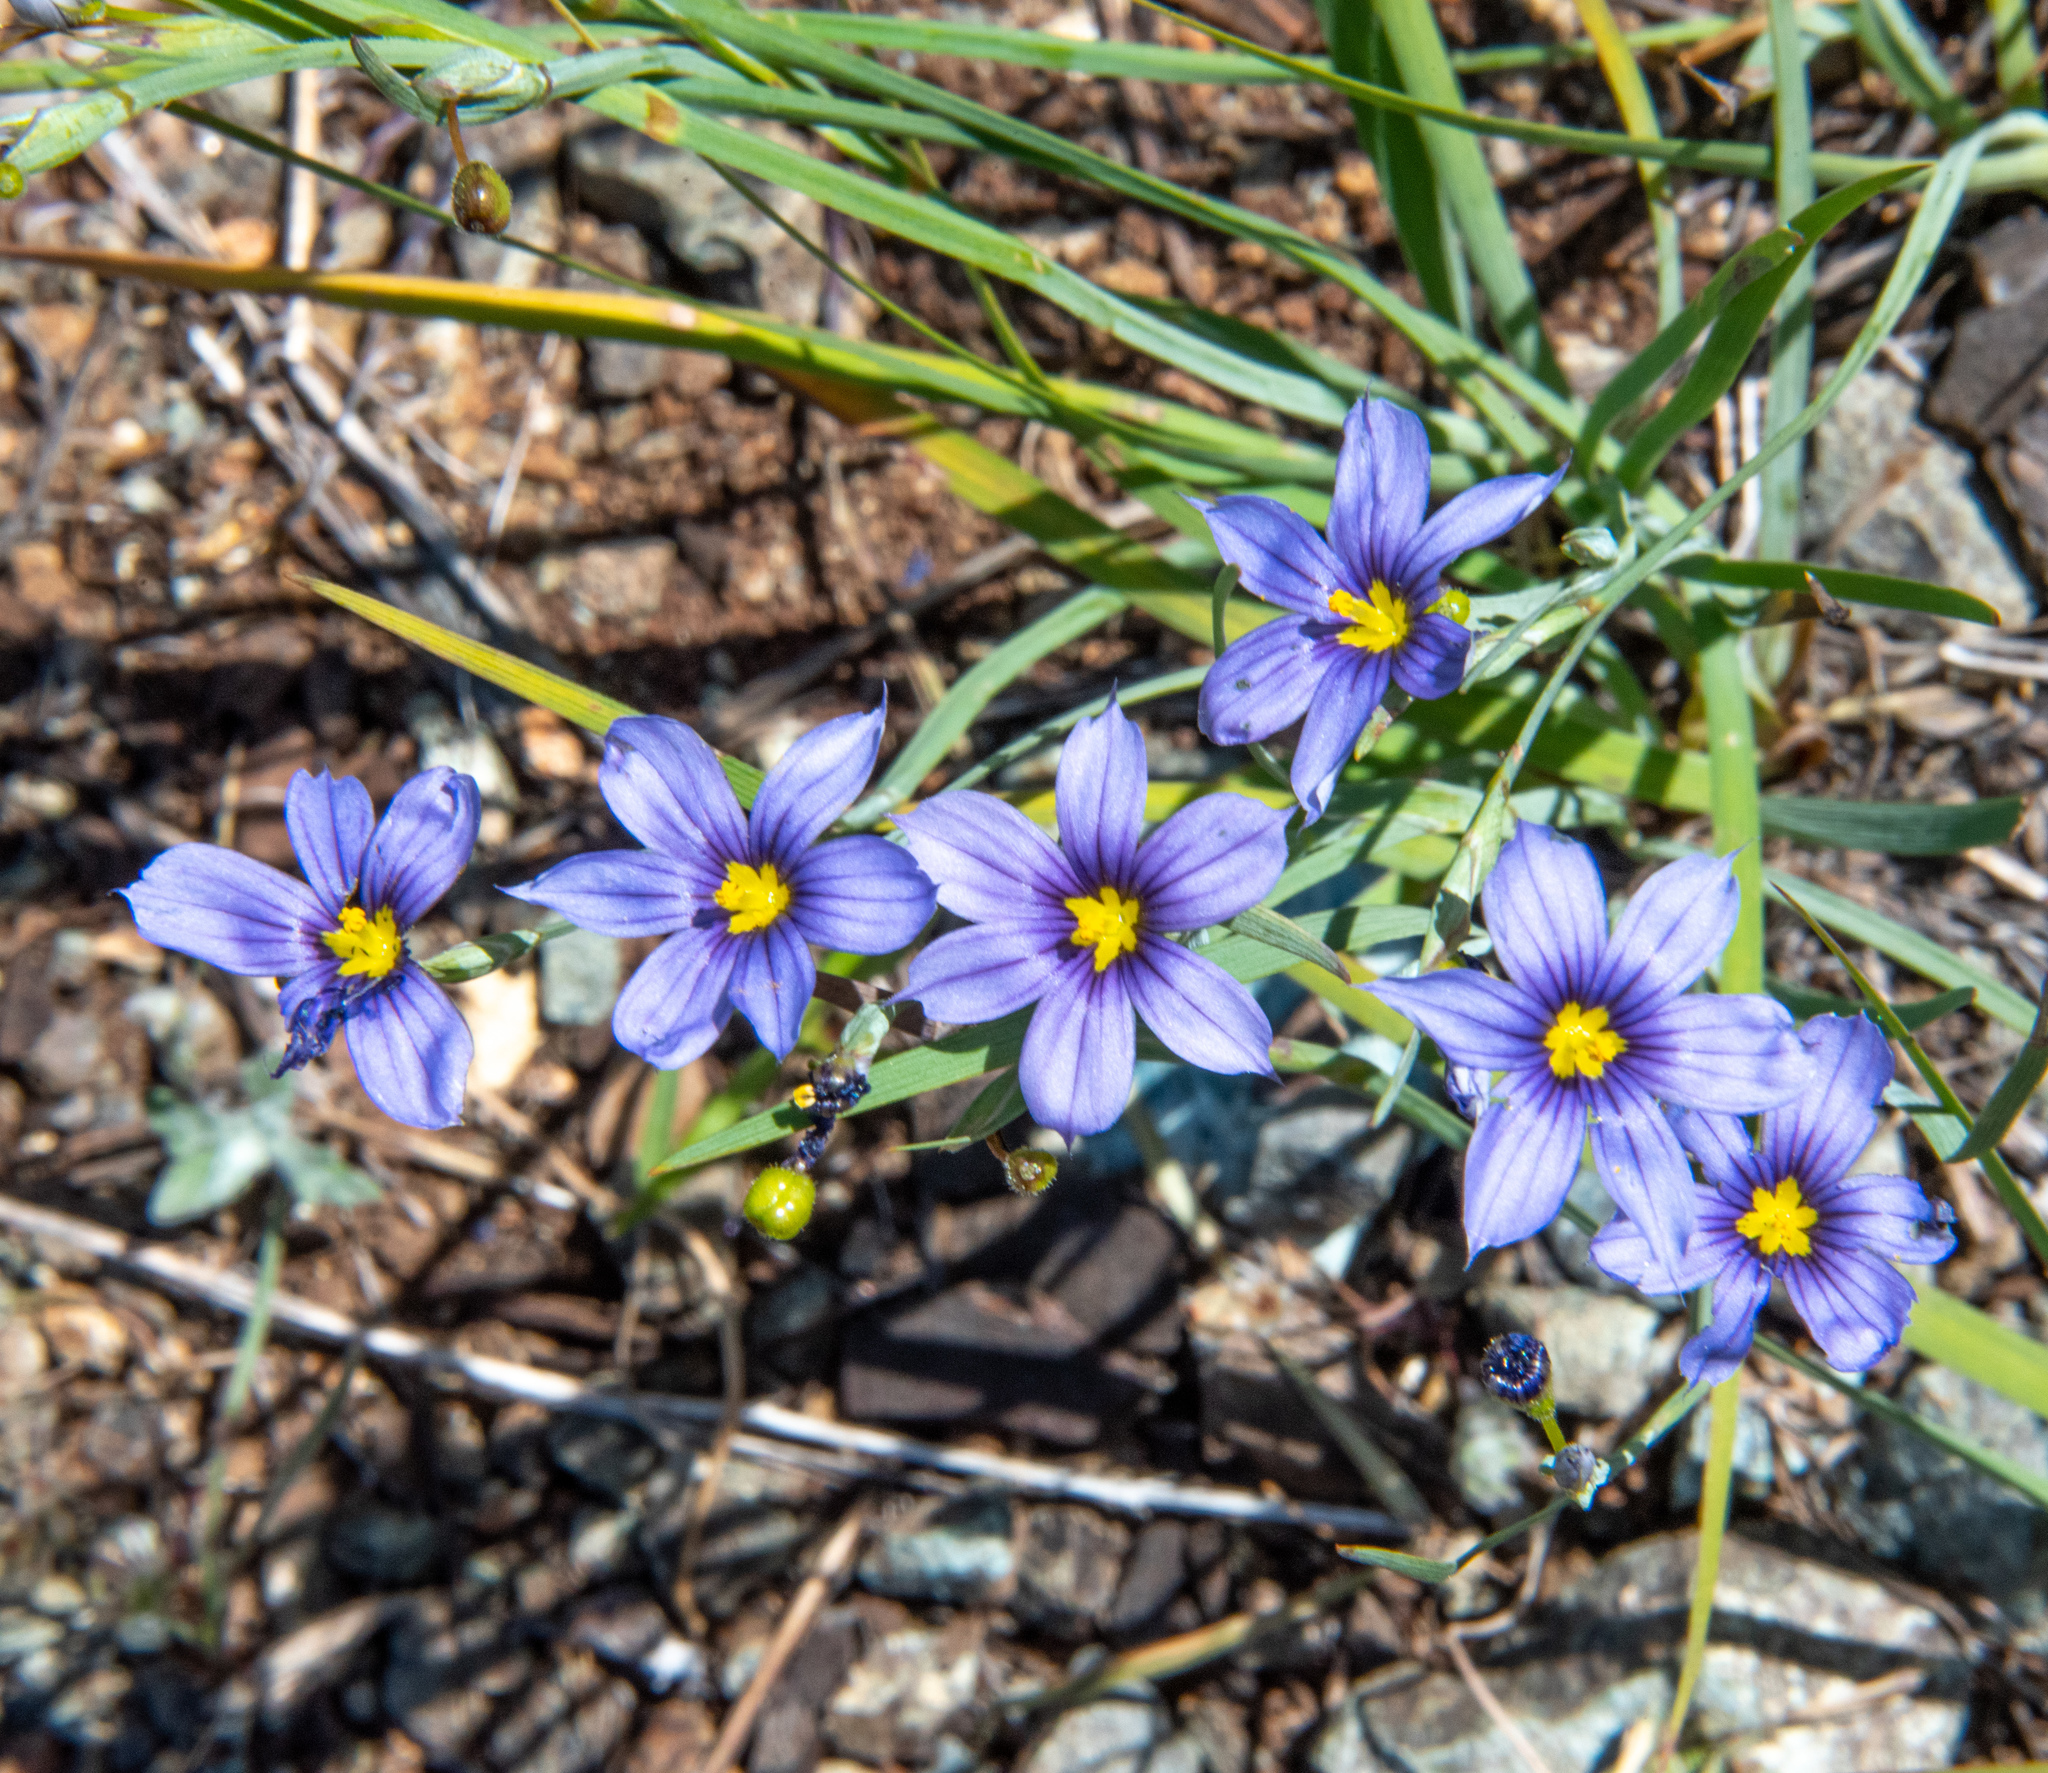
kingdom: Plantae
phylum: Tracheophyta
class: Liliopsida
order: Asparagales
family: Iridaceae
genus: Sisyrinchium
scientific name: Sisyrinchium bellum
